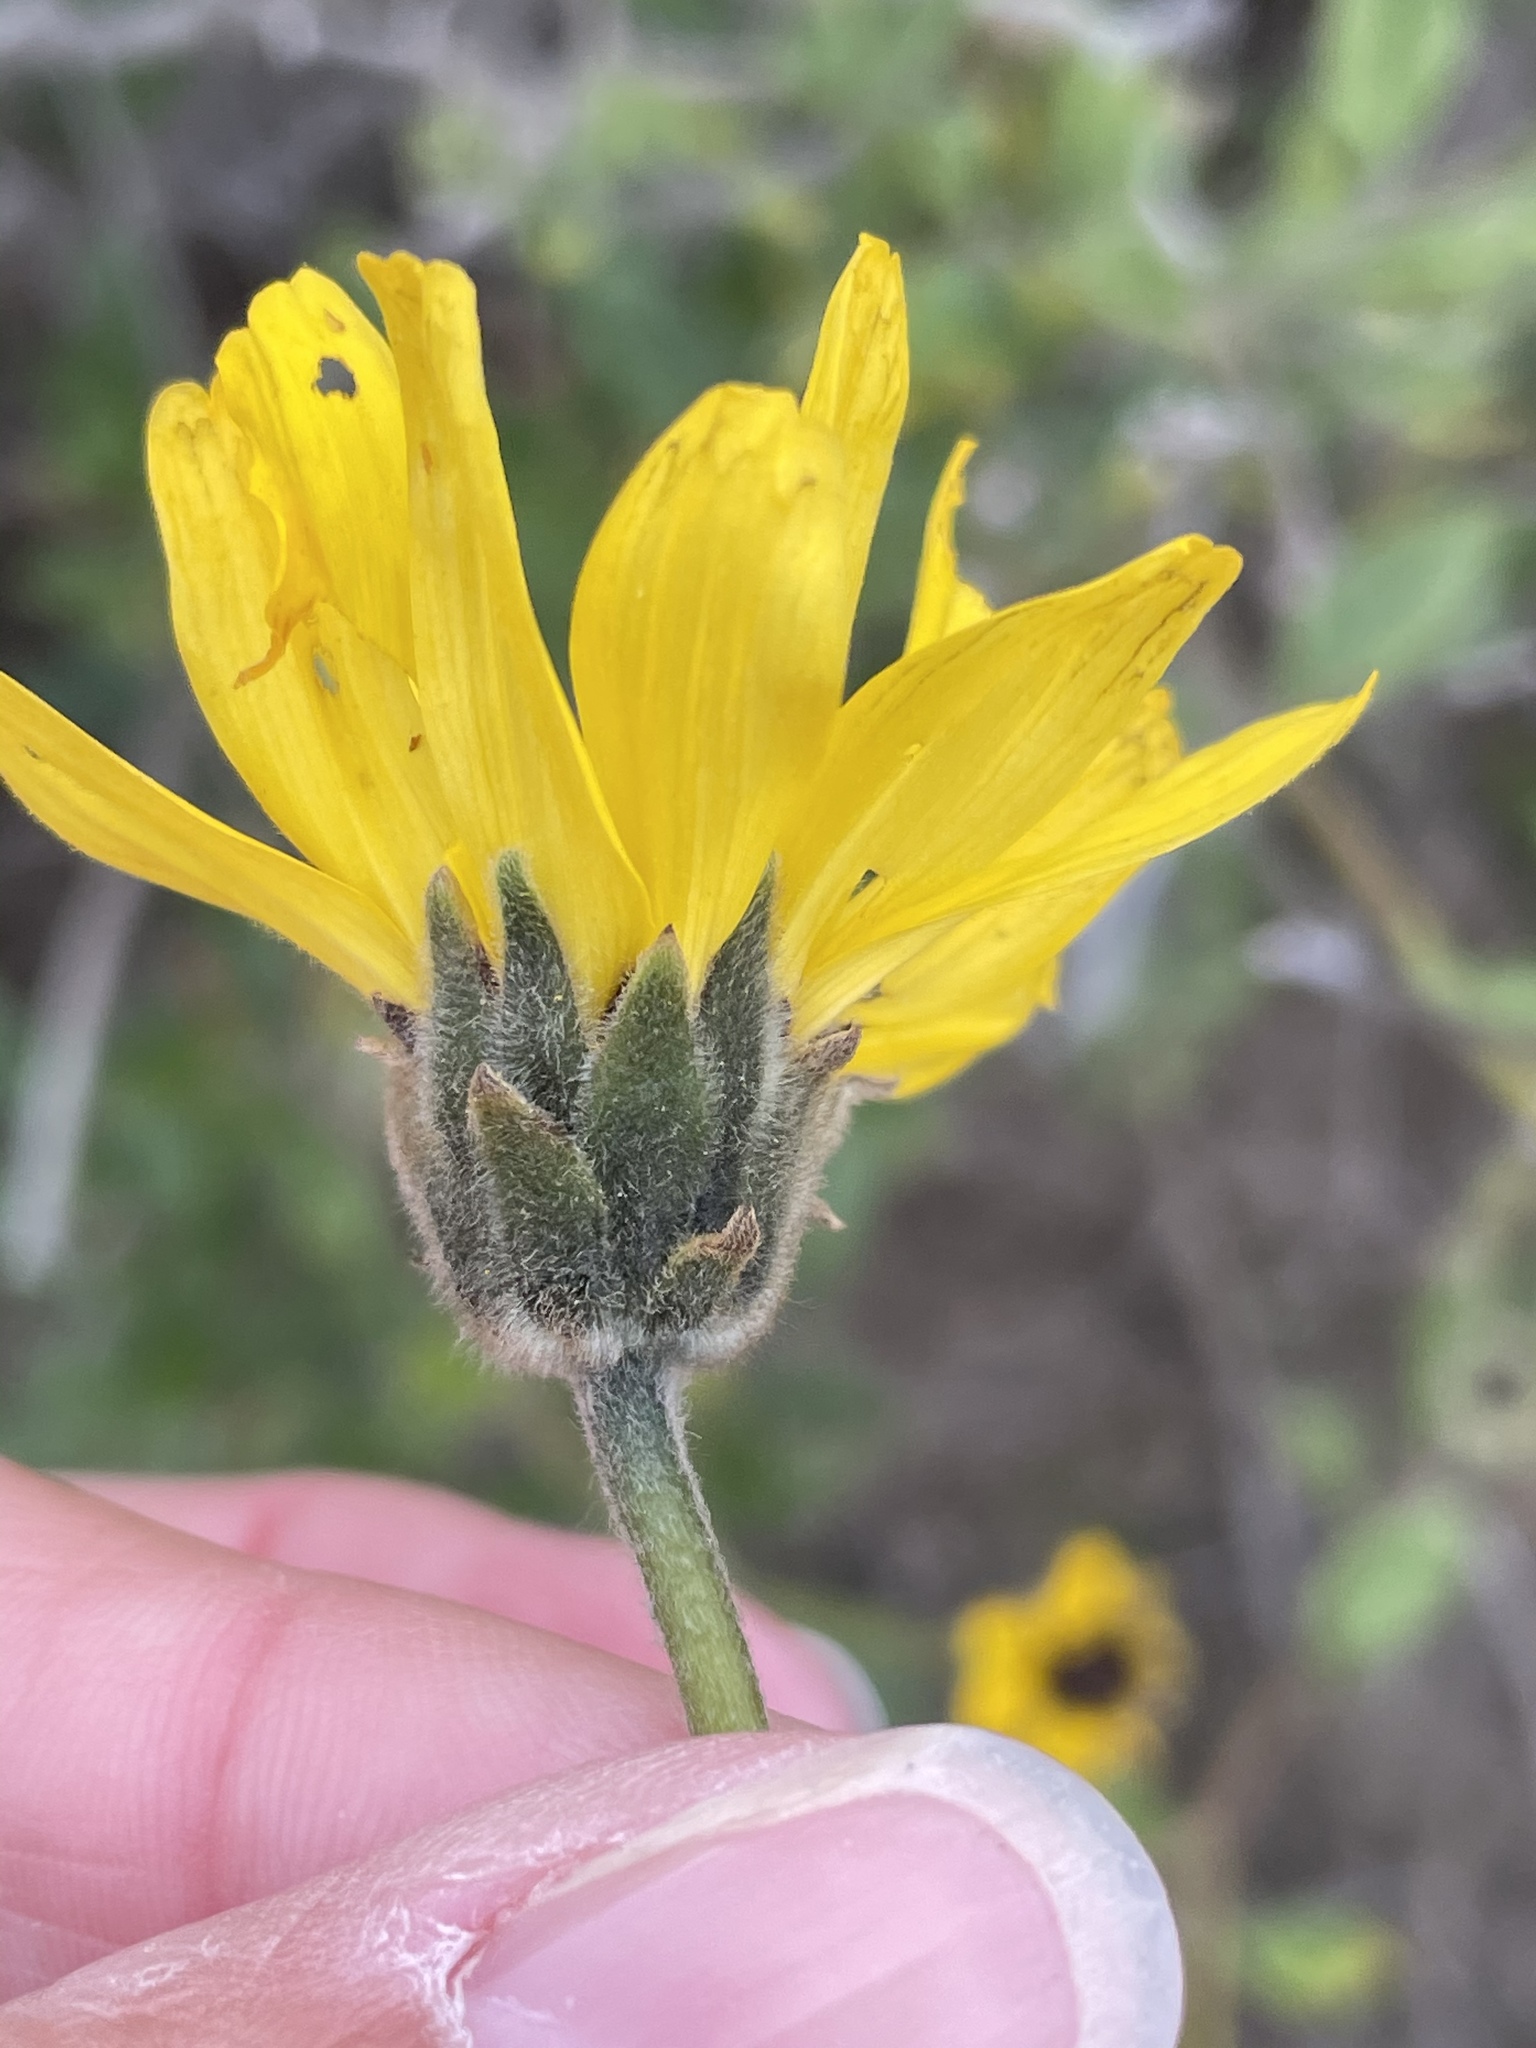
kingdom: Plantae
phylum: Tracheophyta
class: Magnoliopsida
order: Asterales
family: Asteraceae
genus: Encelia
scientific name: Encelia californica
